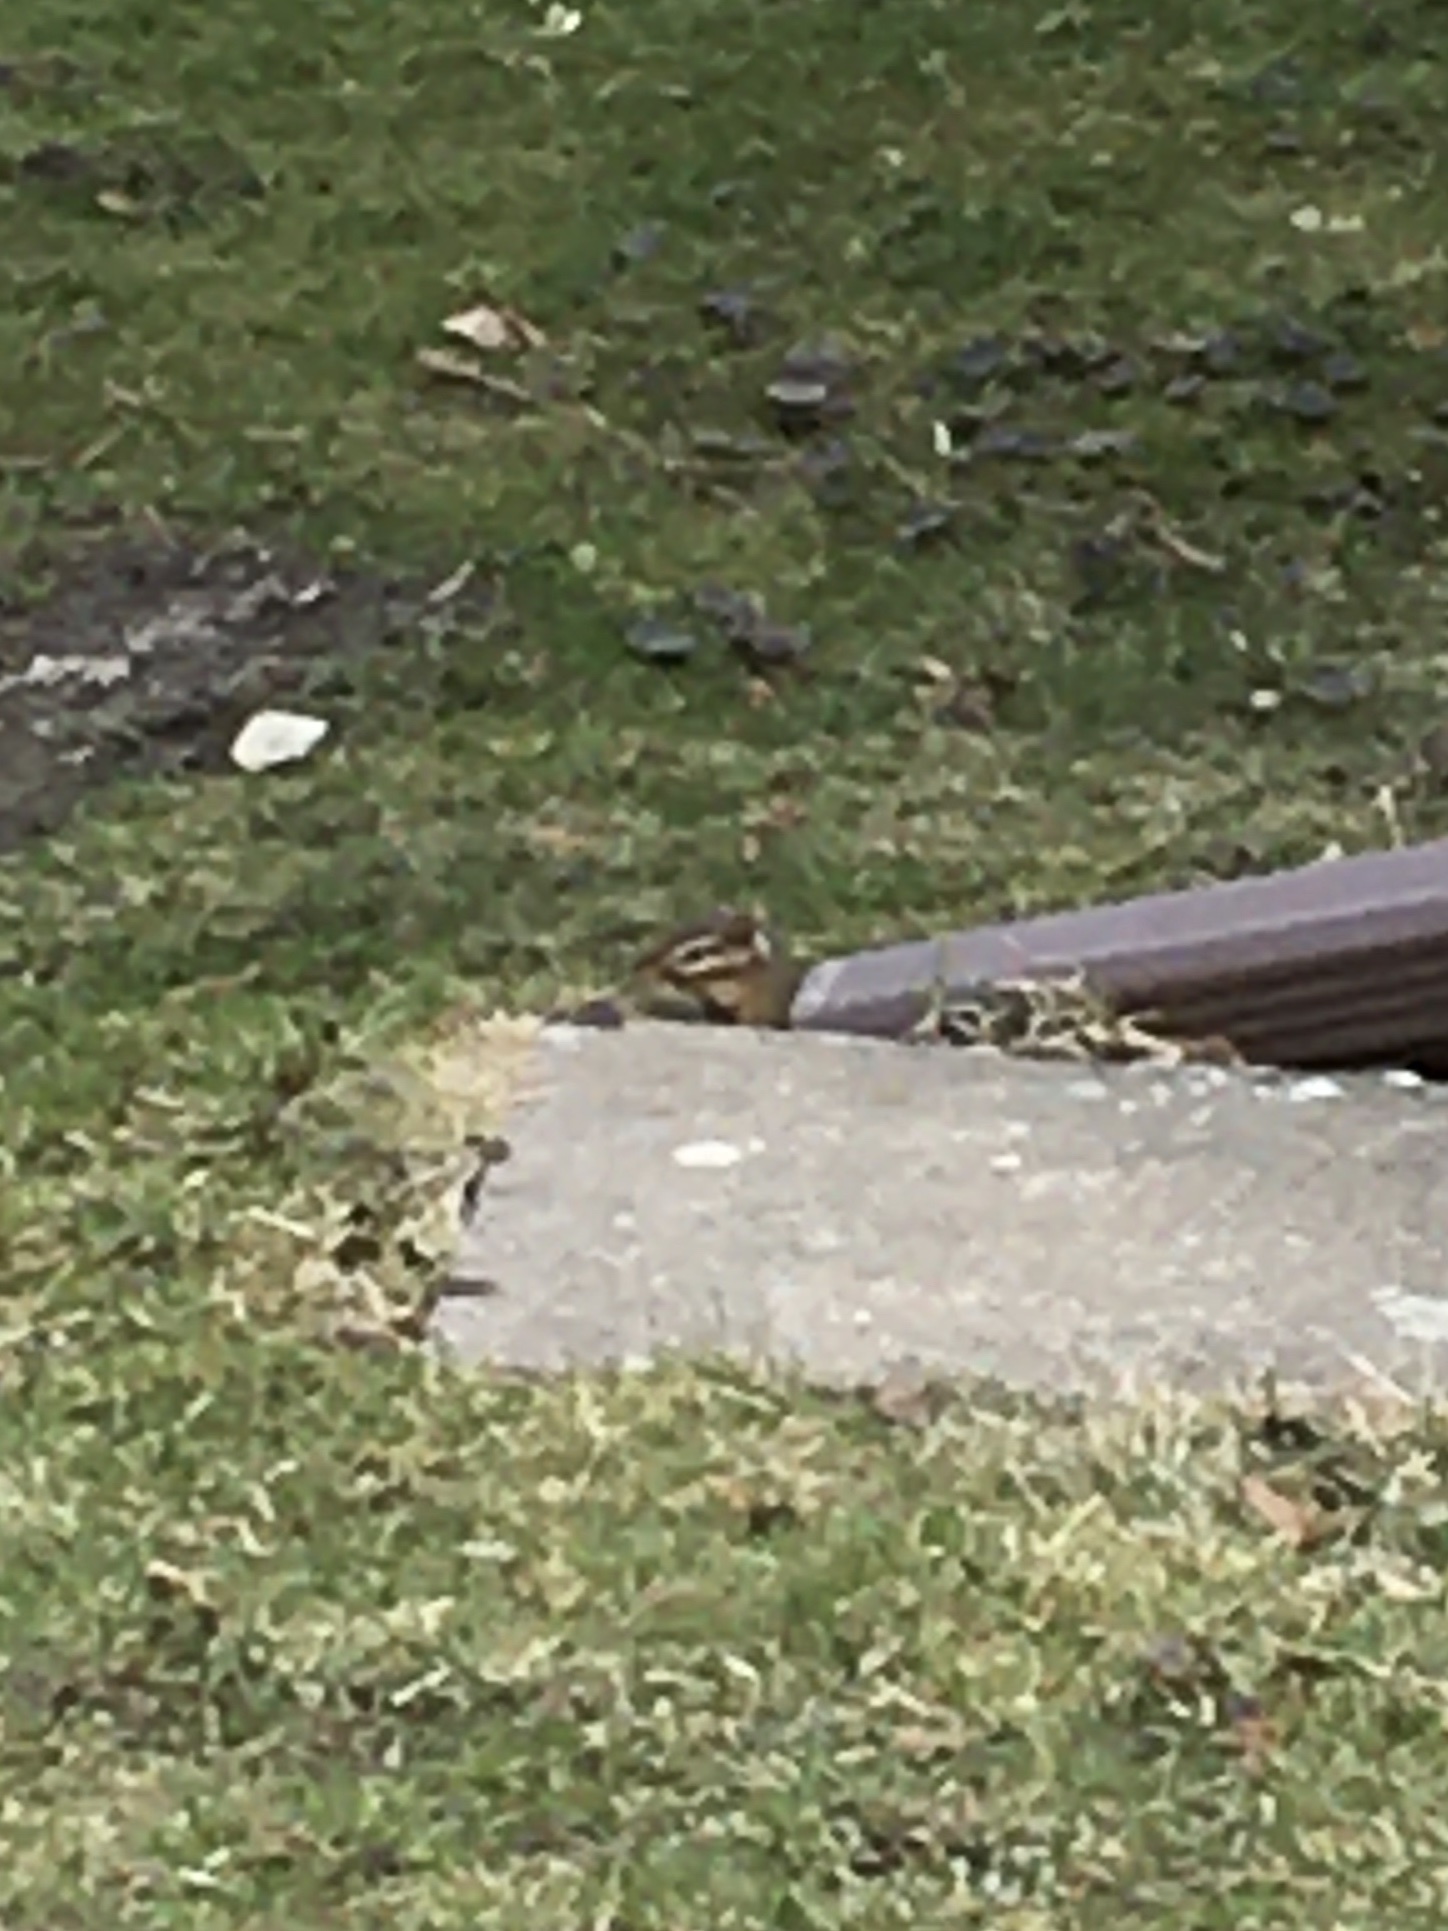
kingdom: Animalia
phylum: Chordata
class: Mammalia
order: Rodentia
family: Sciuridae
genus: Tamias
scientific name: Tamias striatus
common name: Eastern chipmunk
